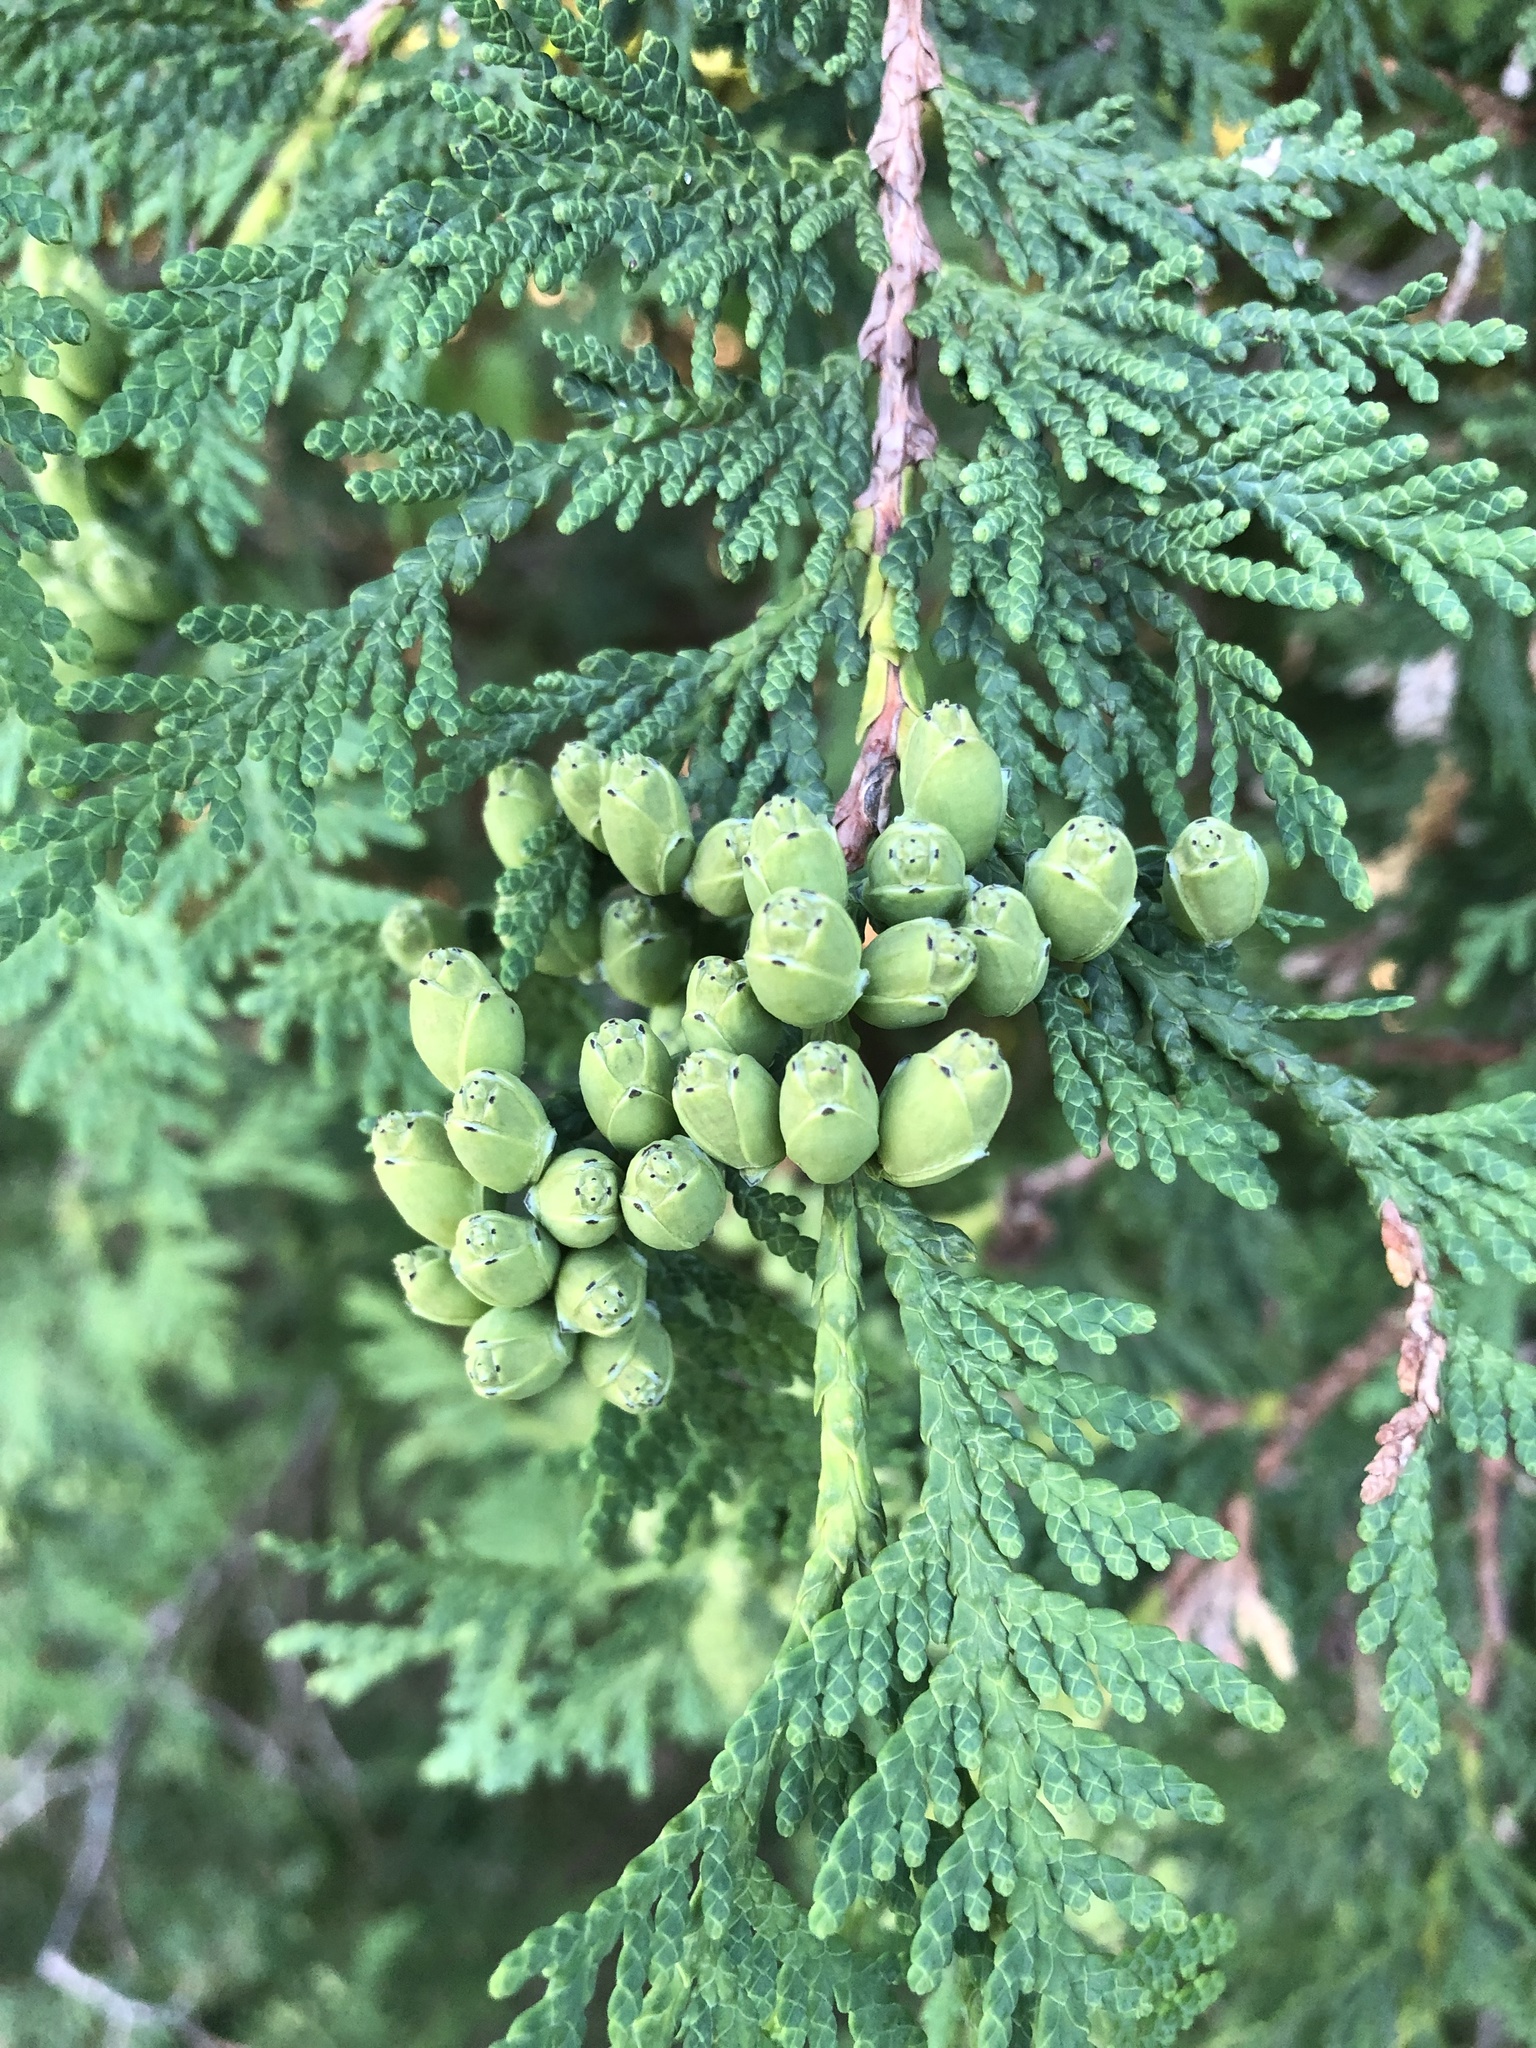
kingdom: Plantae
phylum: Tracheophyta
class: Pinopsida
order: Pinales
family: Cupressaceae
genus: Thuja
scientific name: Thuja occidentalis
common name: Northern white-cedar
